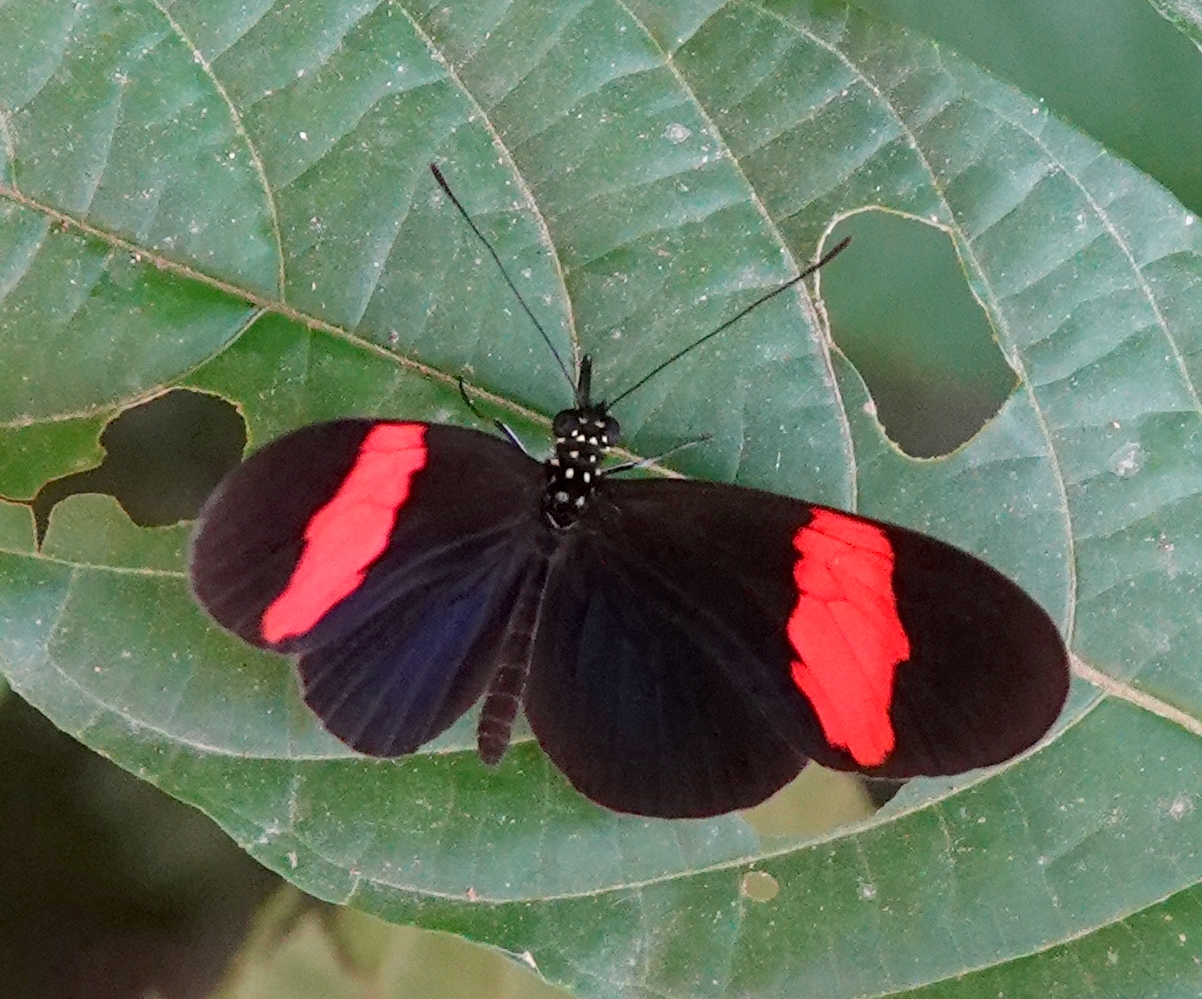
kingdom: Animalia
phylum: Arthropoda
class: Insecta
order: Lepidoptera
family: Nymphalidae
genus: Heliconius
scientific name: Heliconius erato
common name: Common patch longwing
